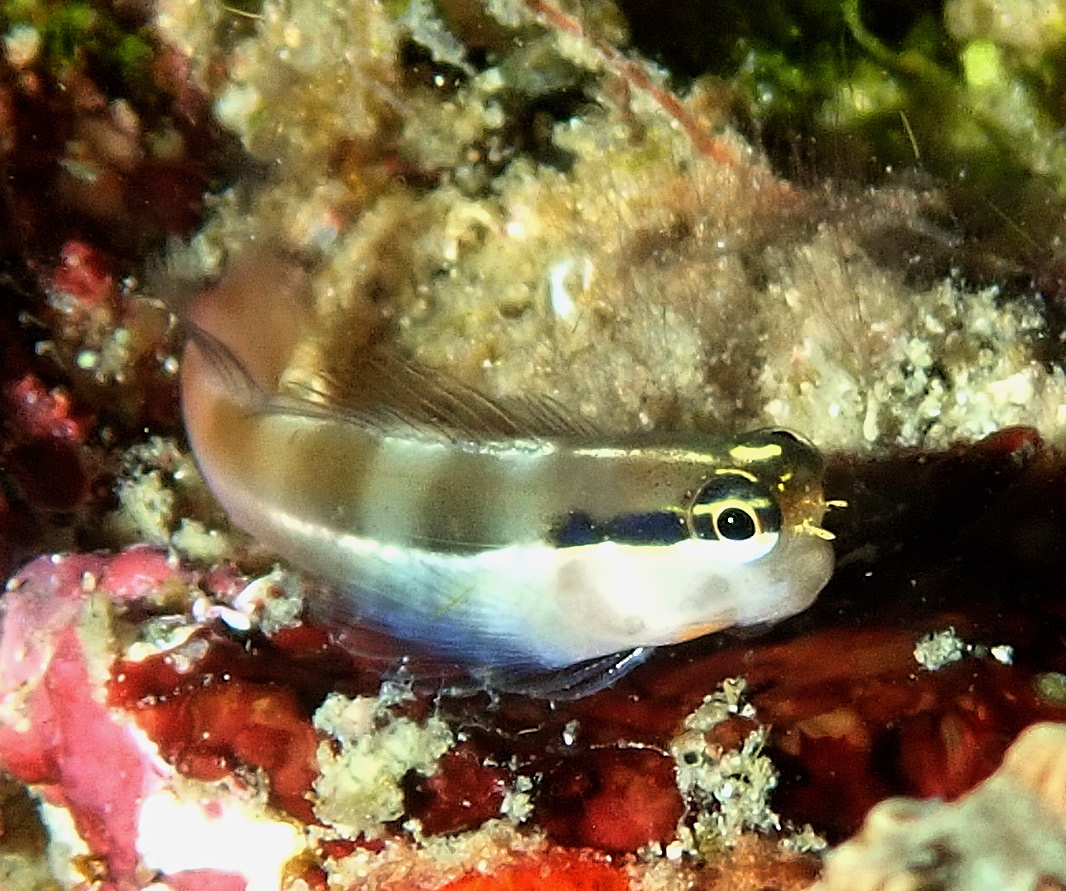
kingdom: Animalia
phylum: Chordata
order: Perciformes
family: Blenniidae
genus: Ecsenius
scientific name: Ecsenius bandanus
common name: Banda clown blenny
